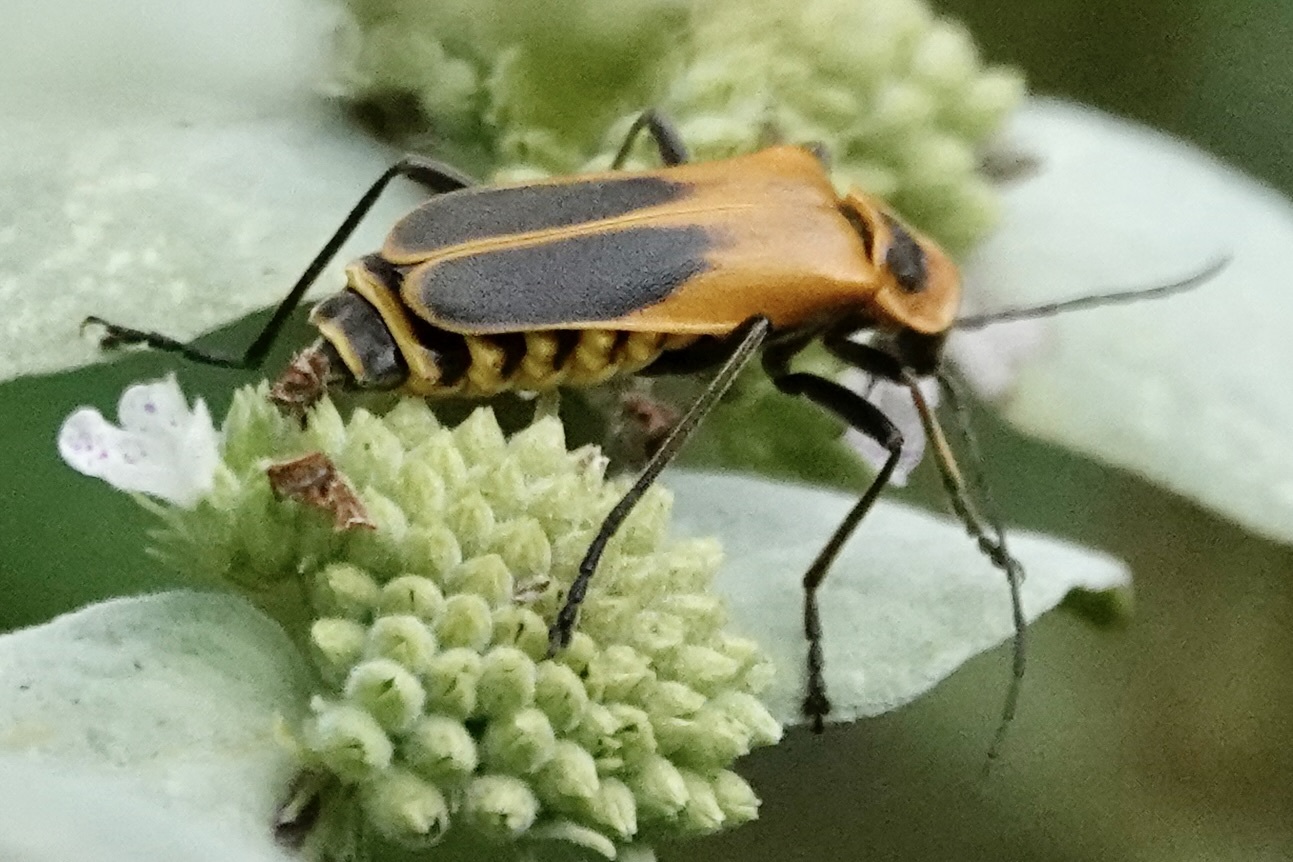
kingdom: Animalia
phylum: Arthropoda
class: Insecta
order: Coleoptera
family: Cantharidae
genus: Chauliognathus
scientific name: Chauliognathus pensylvanicus
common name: Goldenrod soldier beetle
